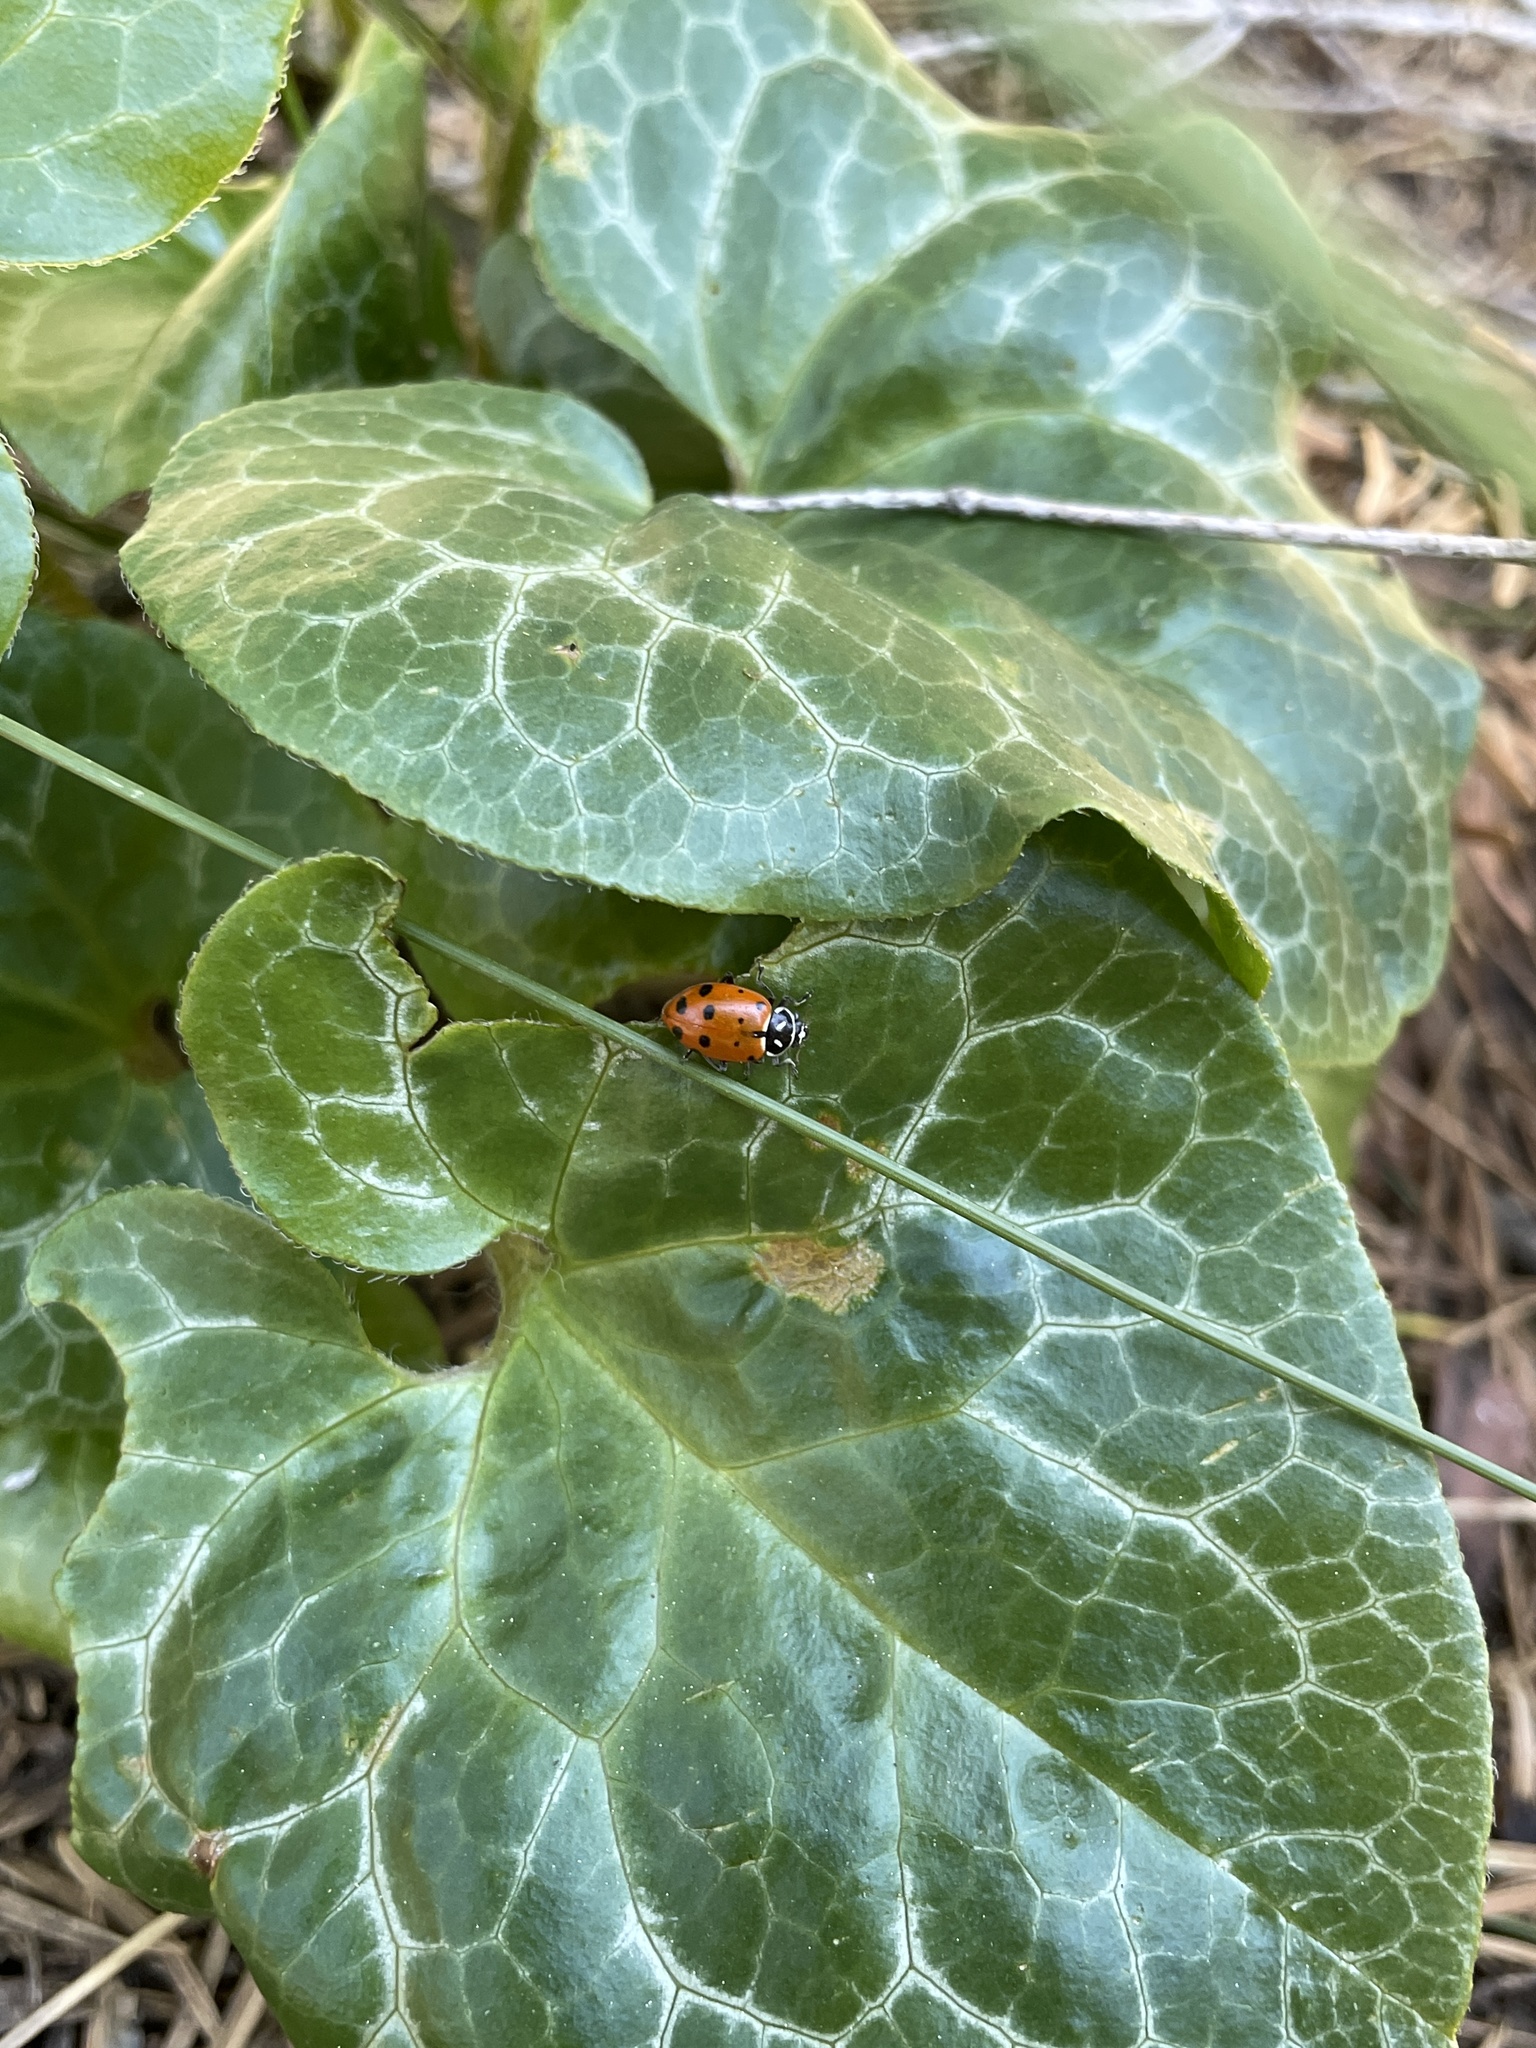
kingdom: Animalia
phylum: Arthropoda
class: Insecta
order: Coleoptera
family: Coccinellidae
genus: Hippodamia
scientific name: Hippodamia convergens
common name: Convergent lady beetle
